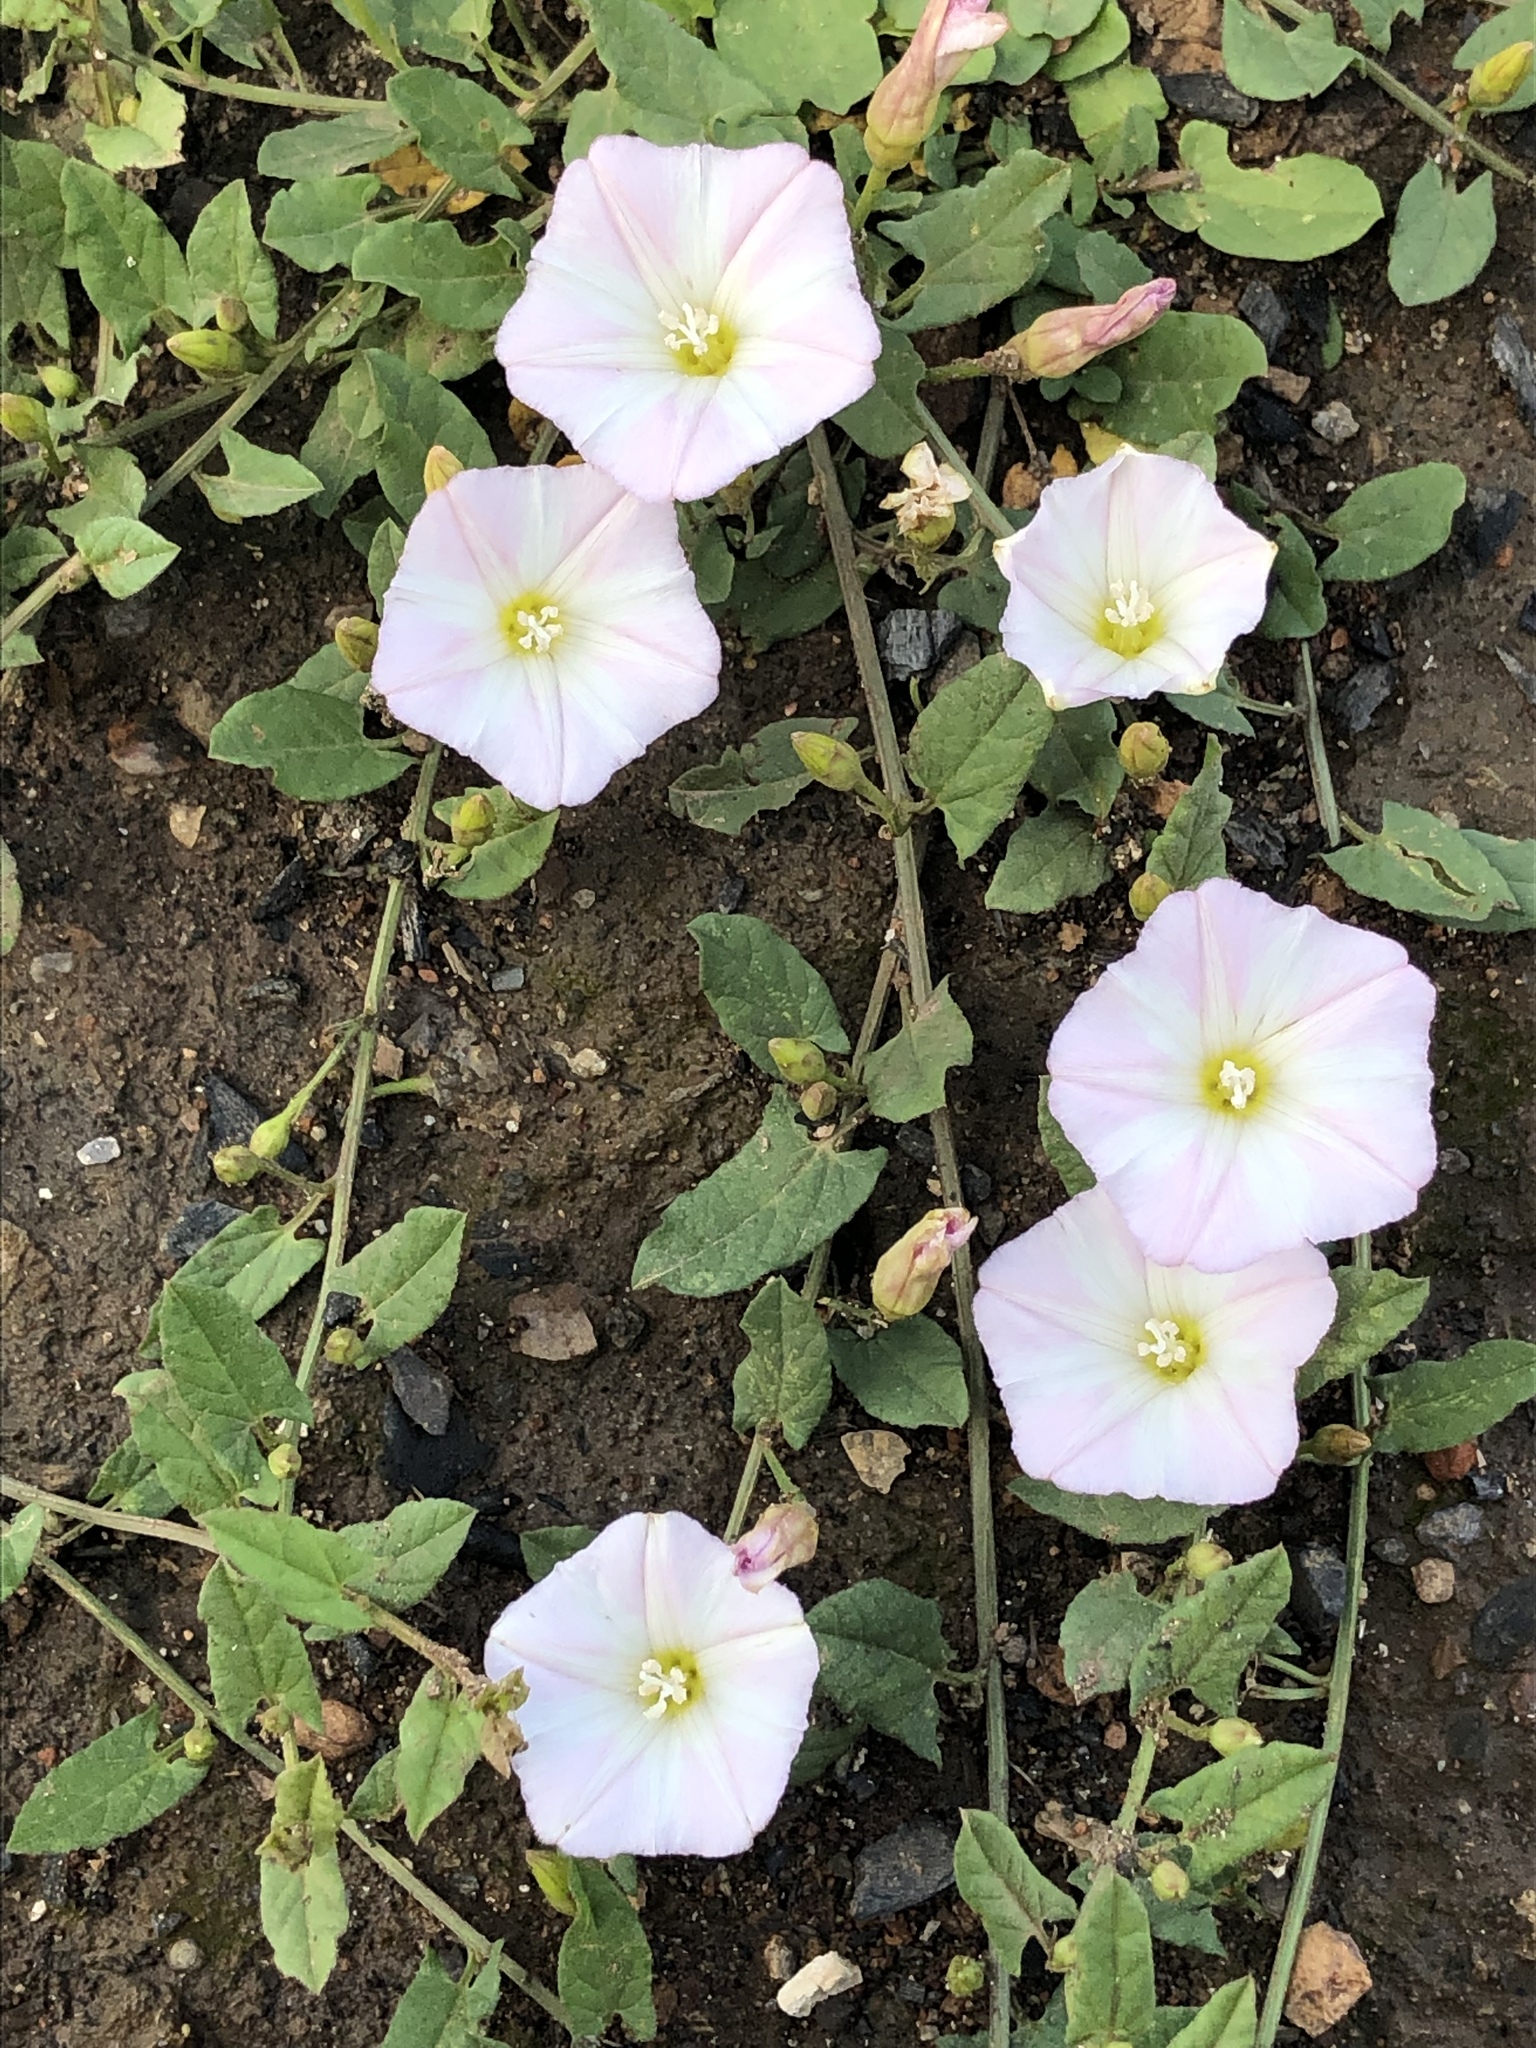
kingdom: Plantae
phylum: Tracheophyta
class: Magnoliopsida
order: Solanales
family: Convolvulaceae
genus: Convolvulus
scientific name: Convolvulus arvensis
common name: Field bindweed
